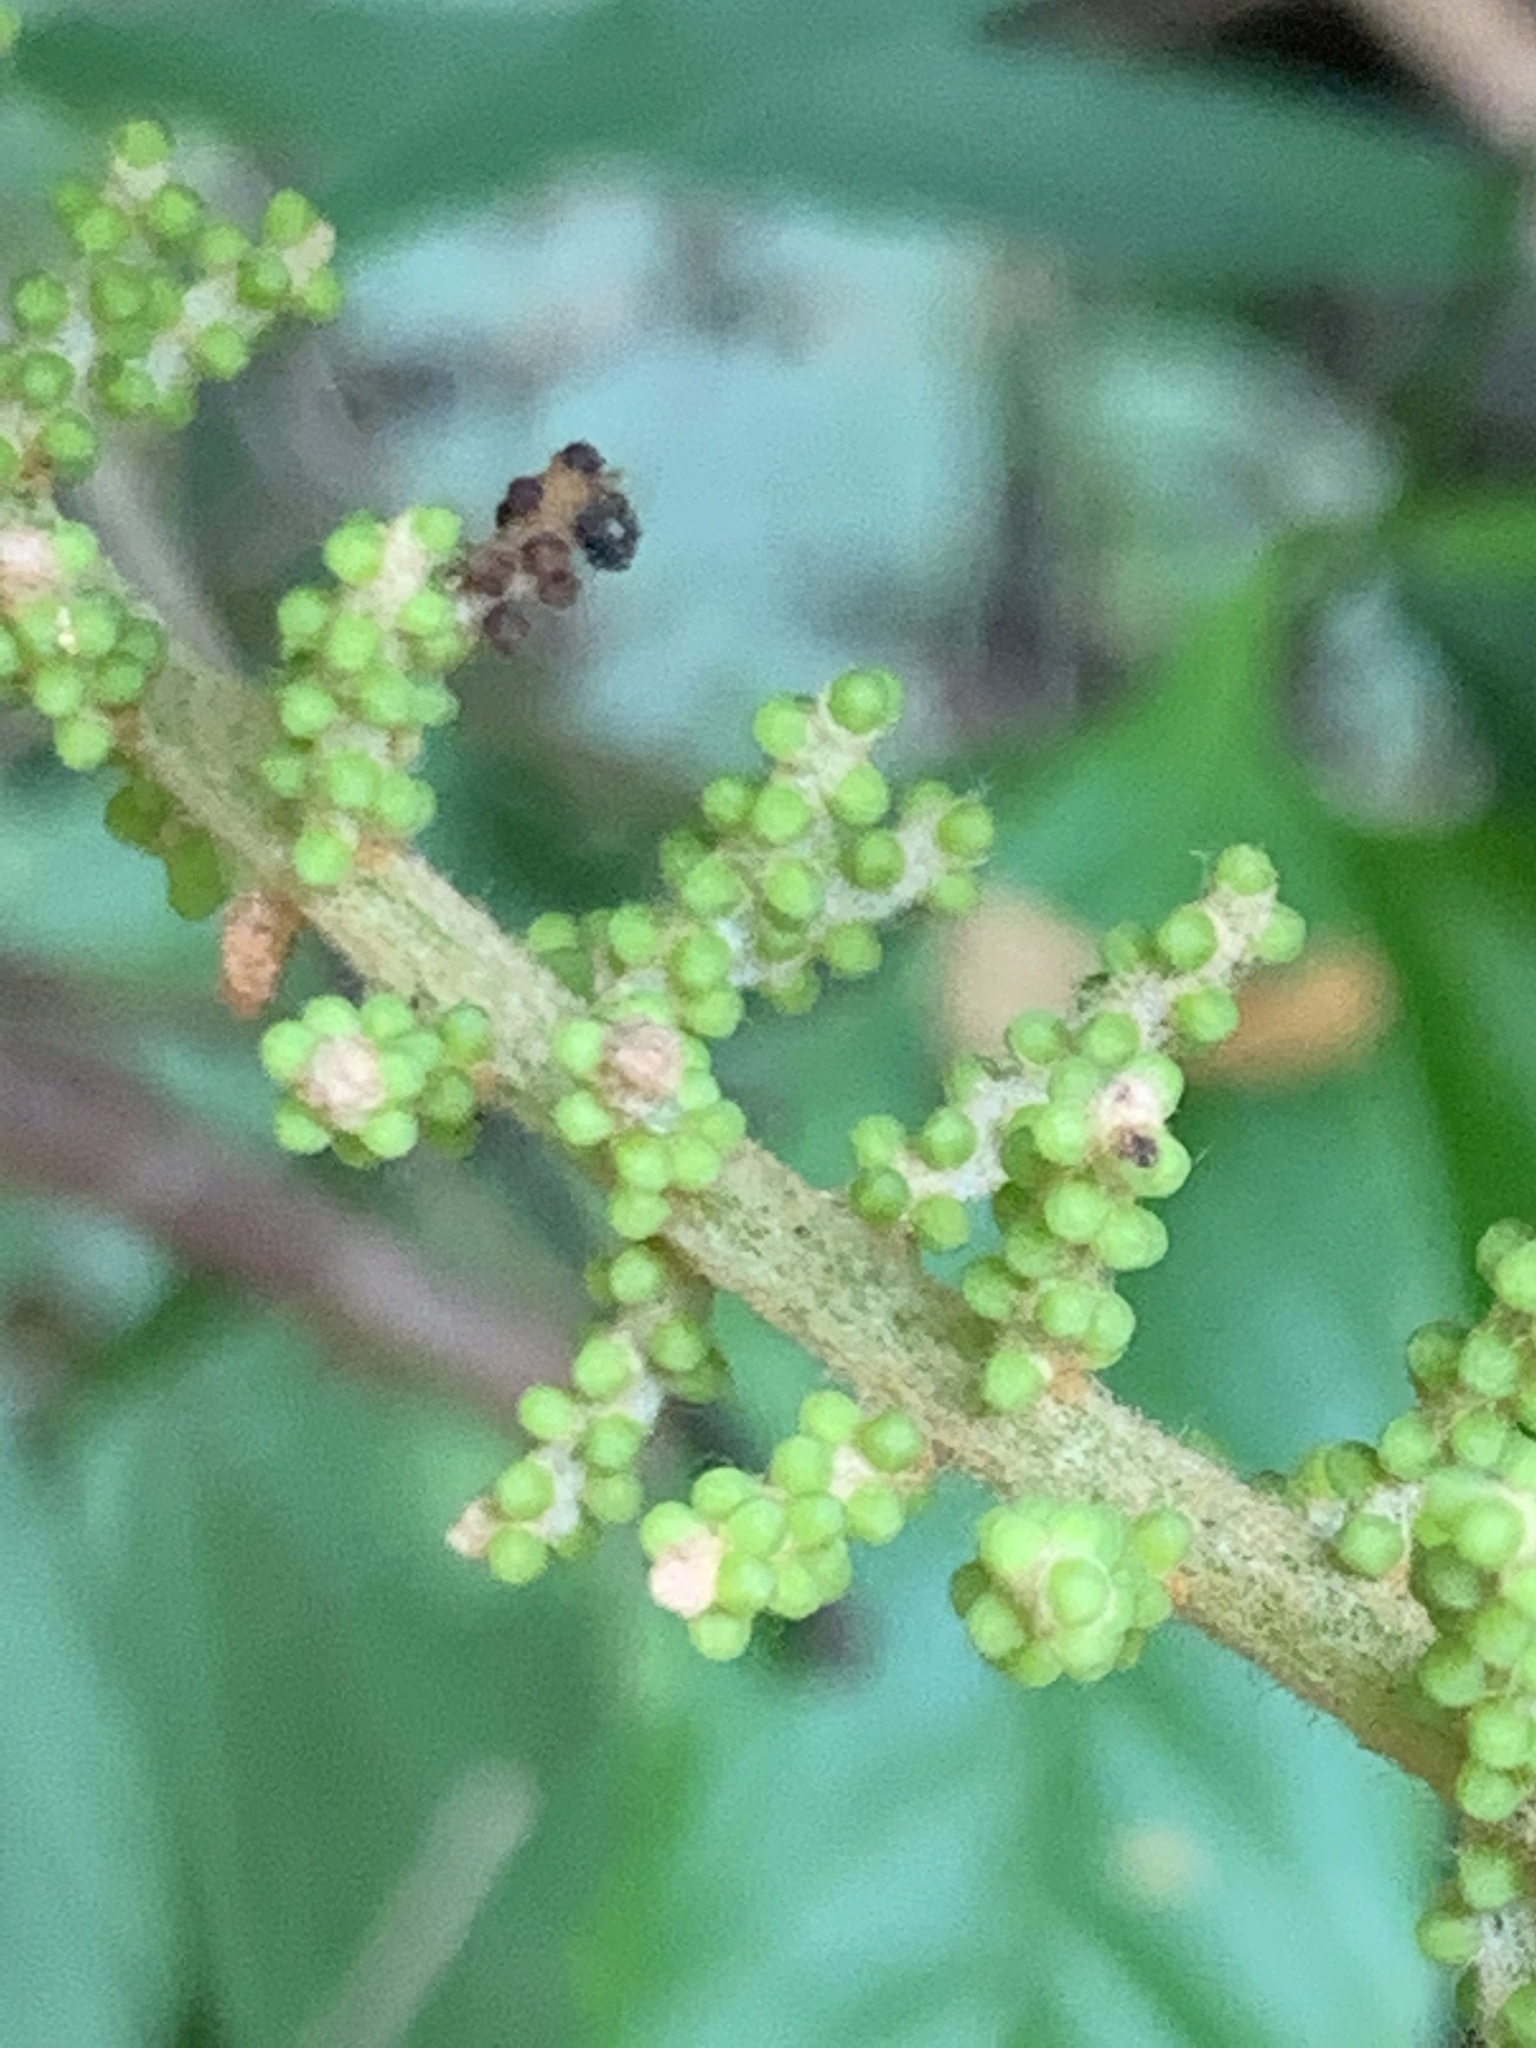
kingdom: Plantae
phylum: Tracheophyta
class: Magnoliopsida
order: Vitales
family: Vitaceae
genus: Ampelocissus
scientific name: Ampelocissus elegans
